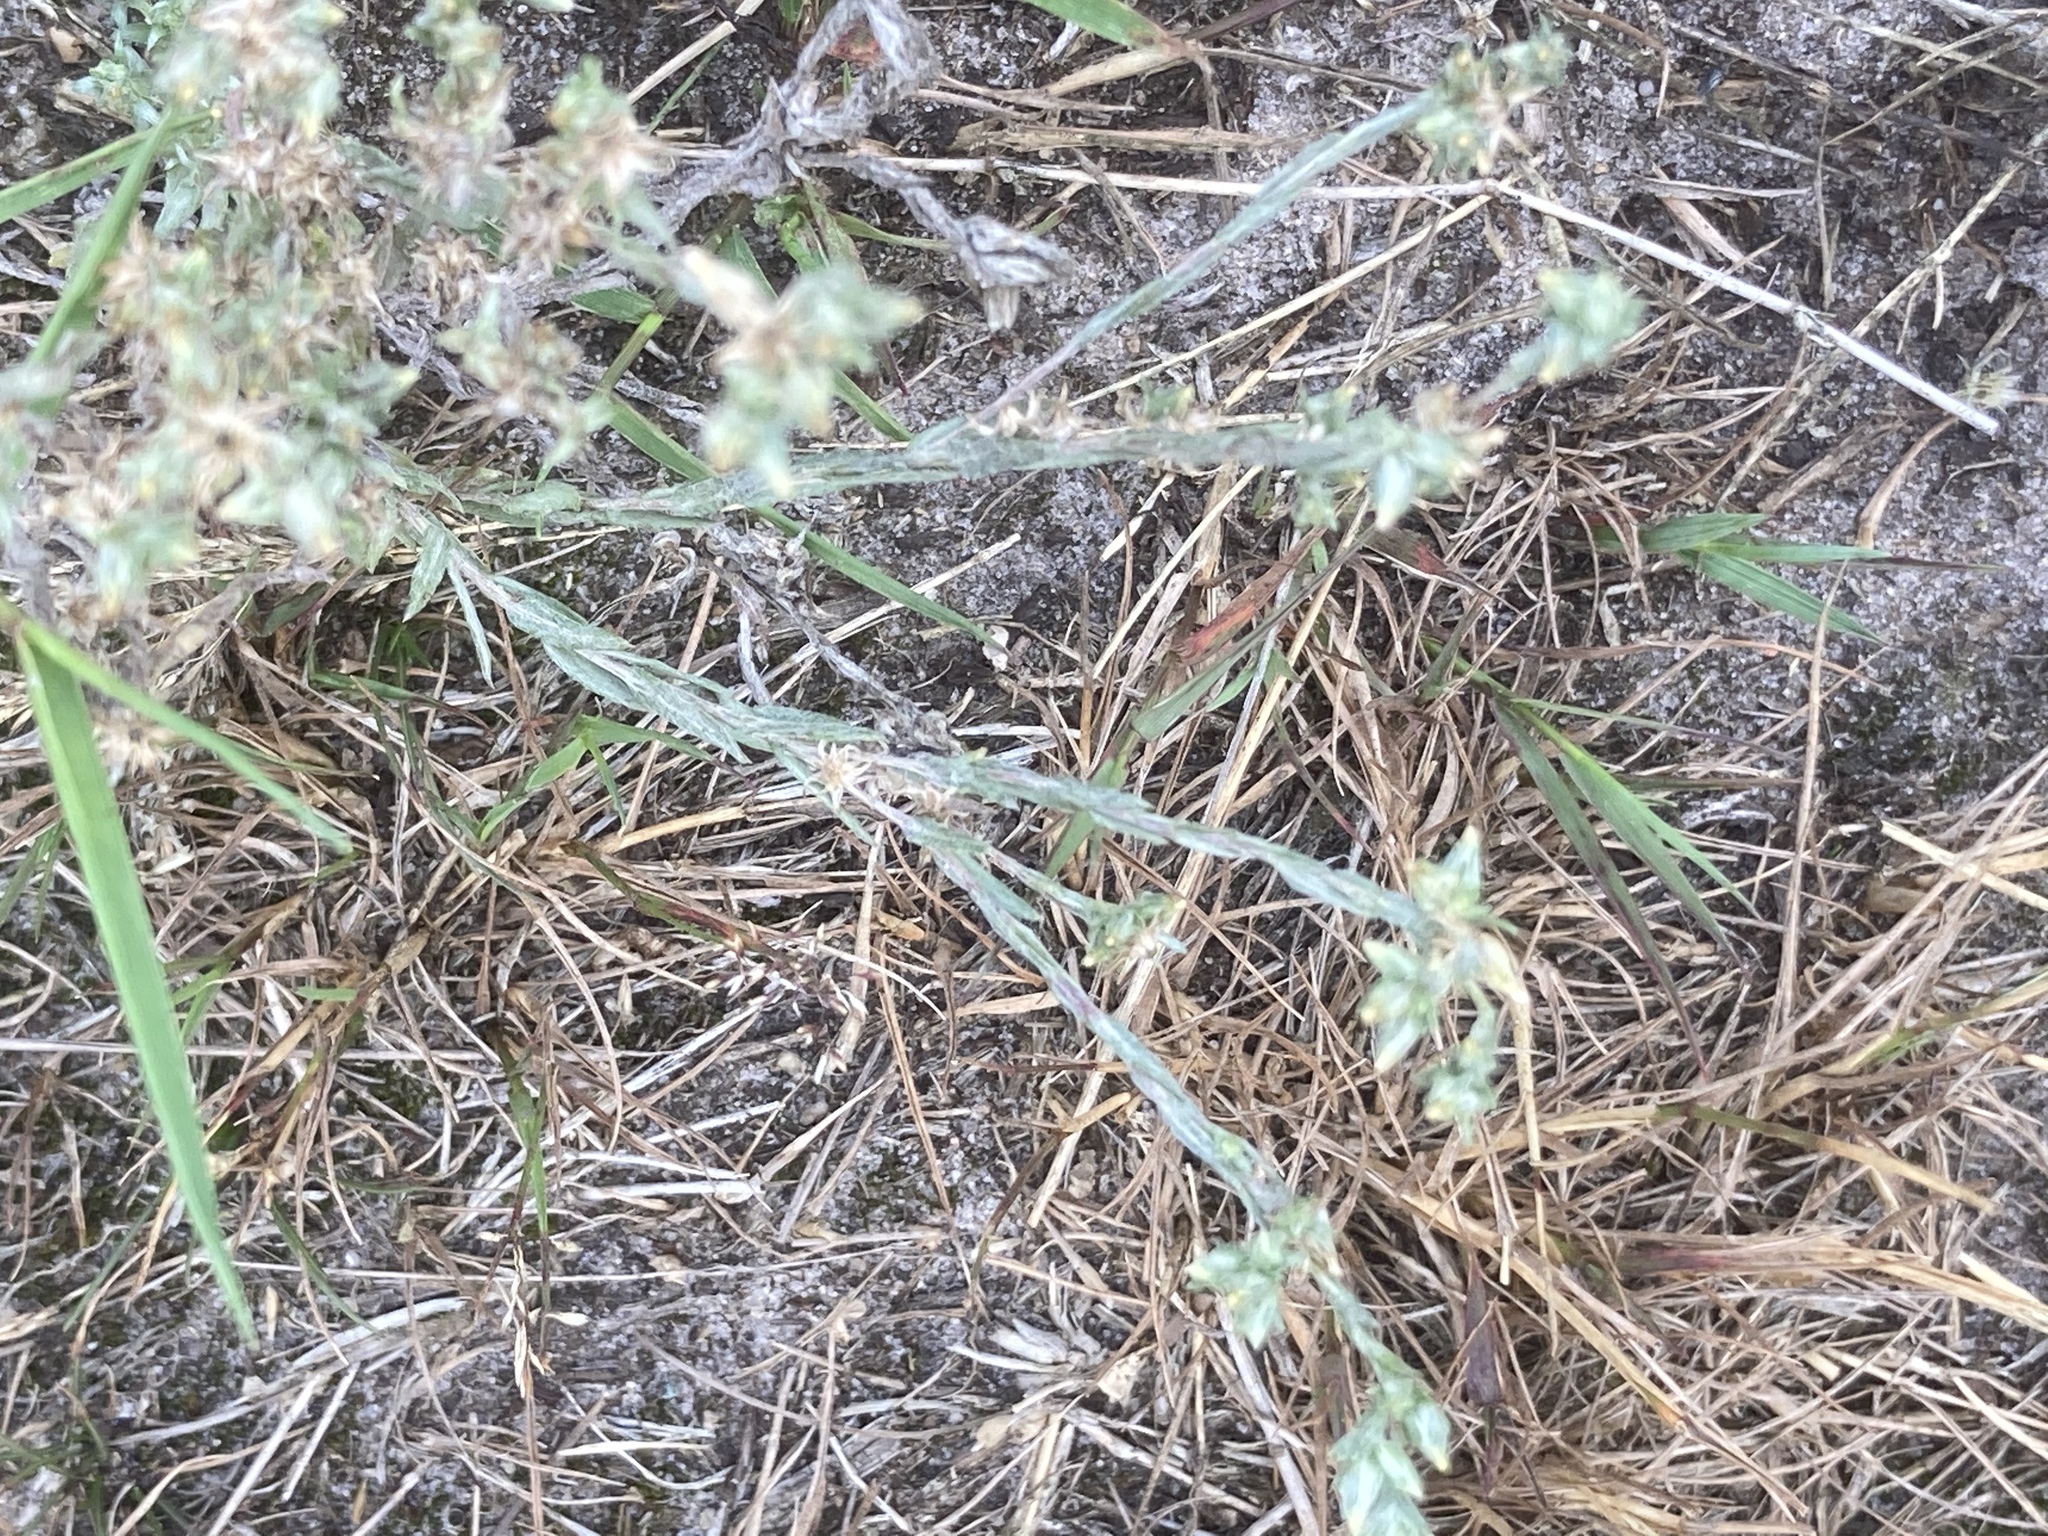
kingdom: Plantae
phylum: Tracheophyta
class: Magnoliopsida
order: Asterales
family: Asteraceae
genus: Logfia
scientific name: Logfia minima
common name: Little cottonrose
